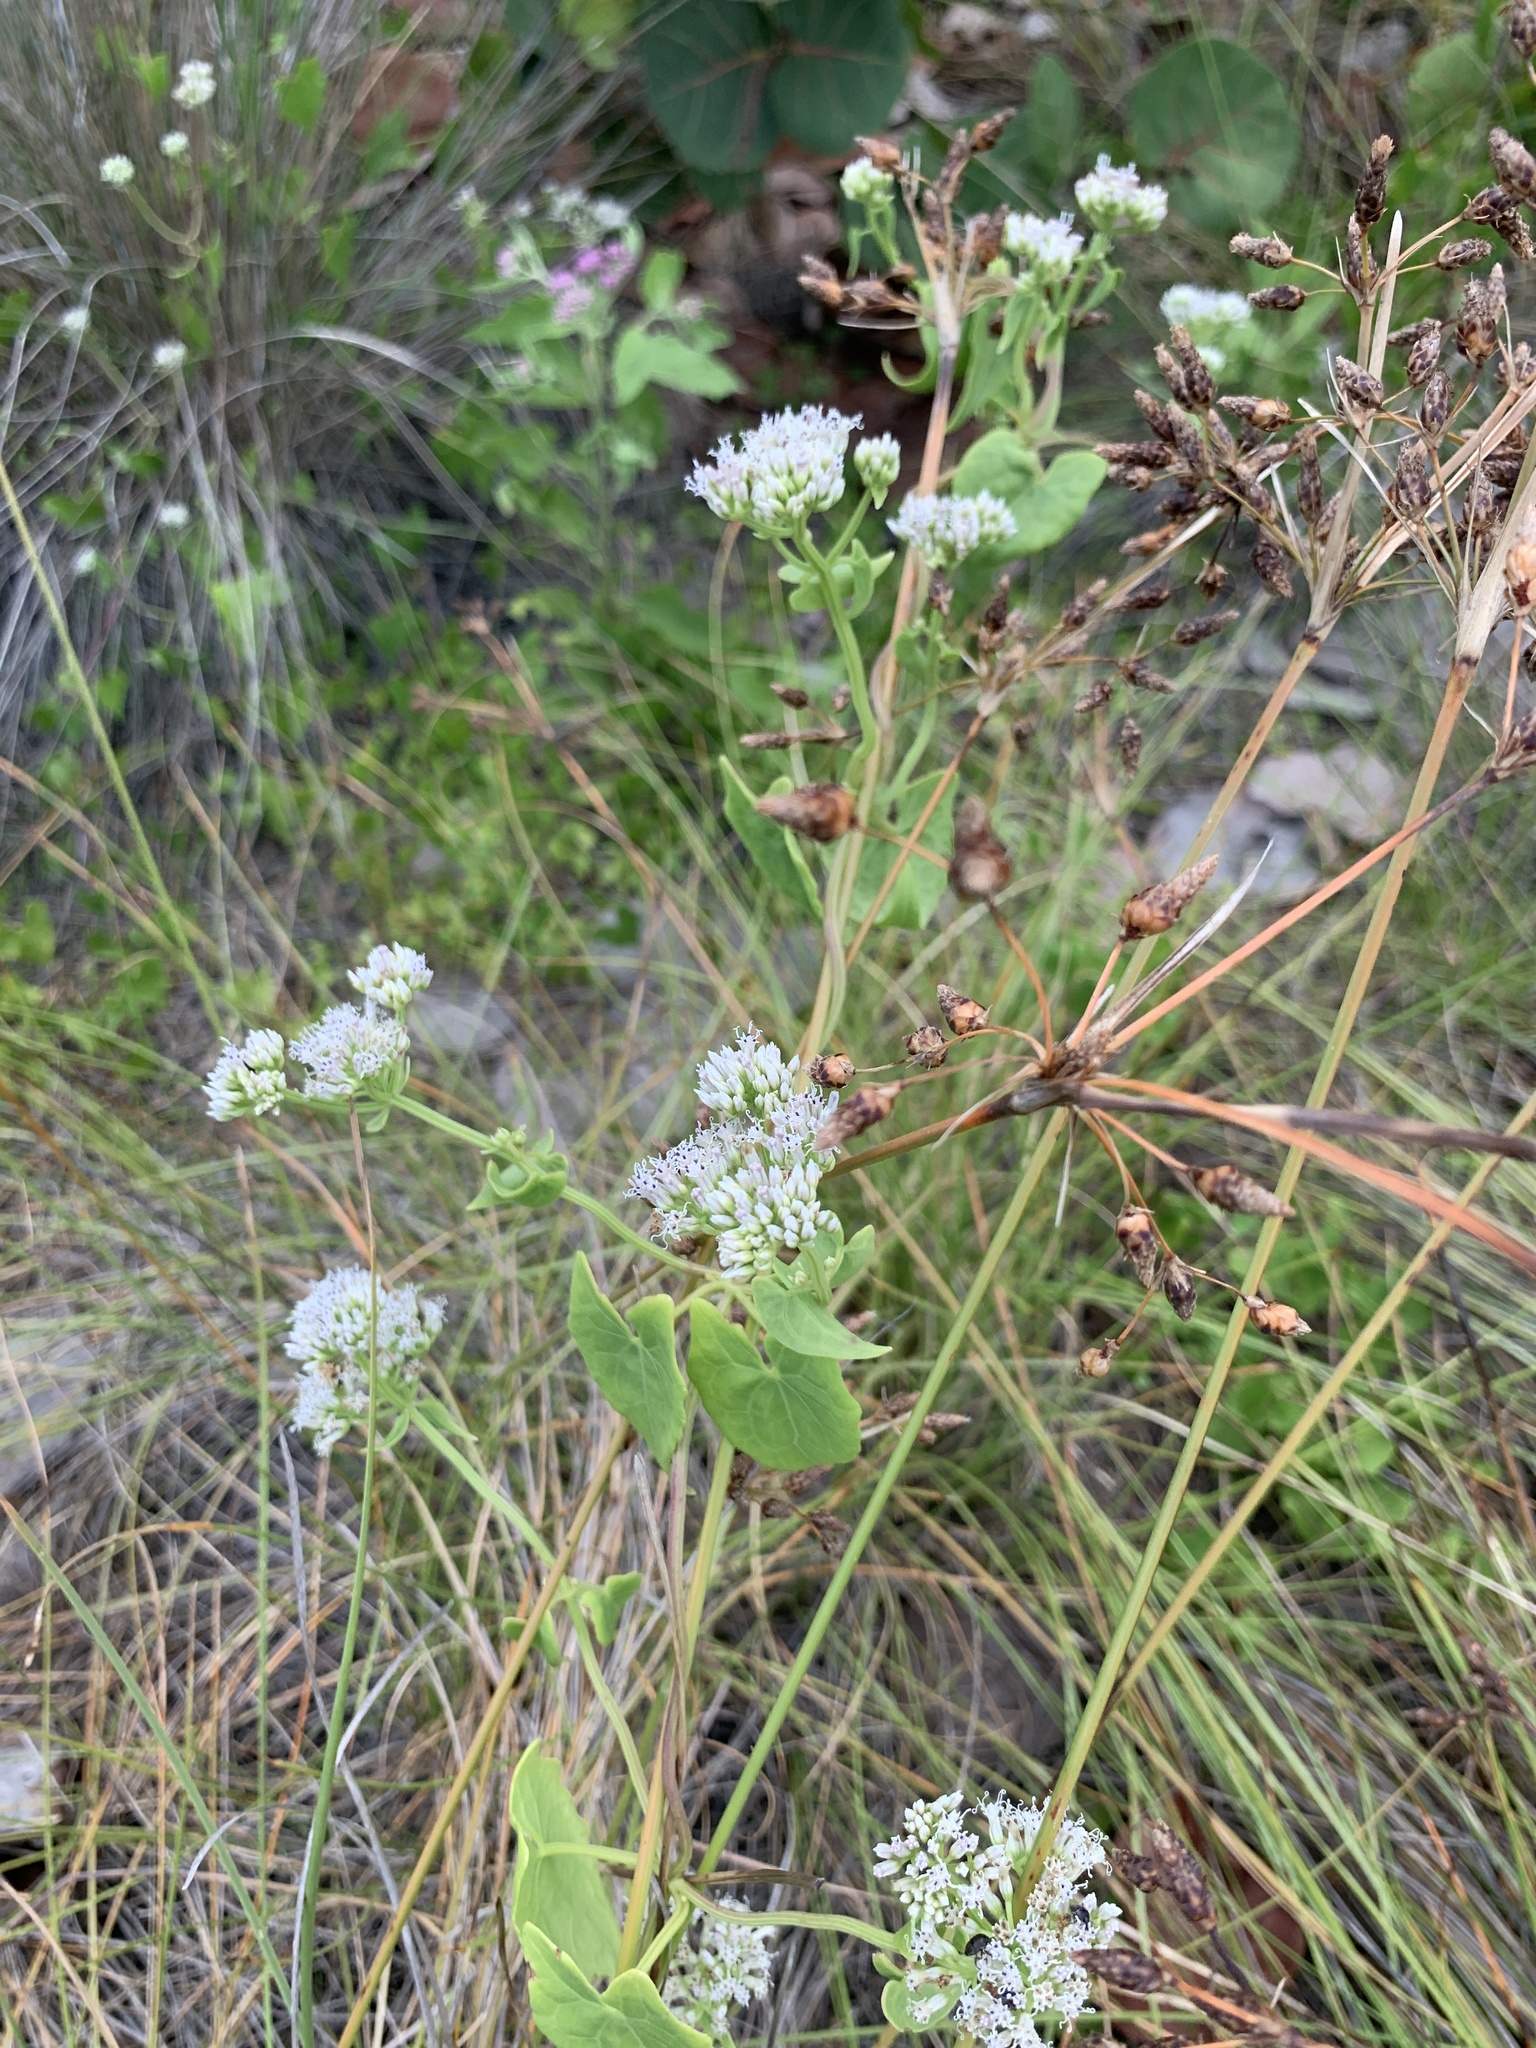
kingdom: Plantae
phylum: Tracheophyta
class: Magnoliopsida
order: Asterales
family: Asteraceae
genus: Mikania
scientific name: Mikania scandens
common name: Climbing hempvine
